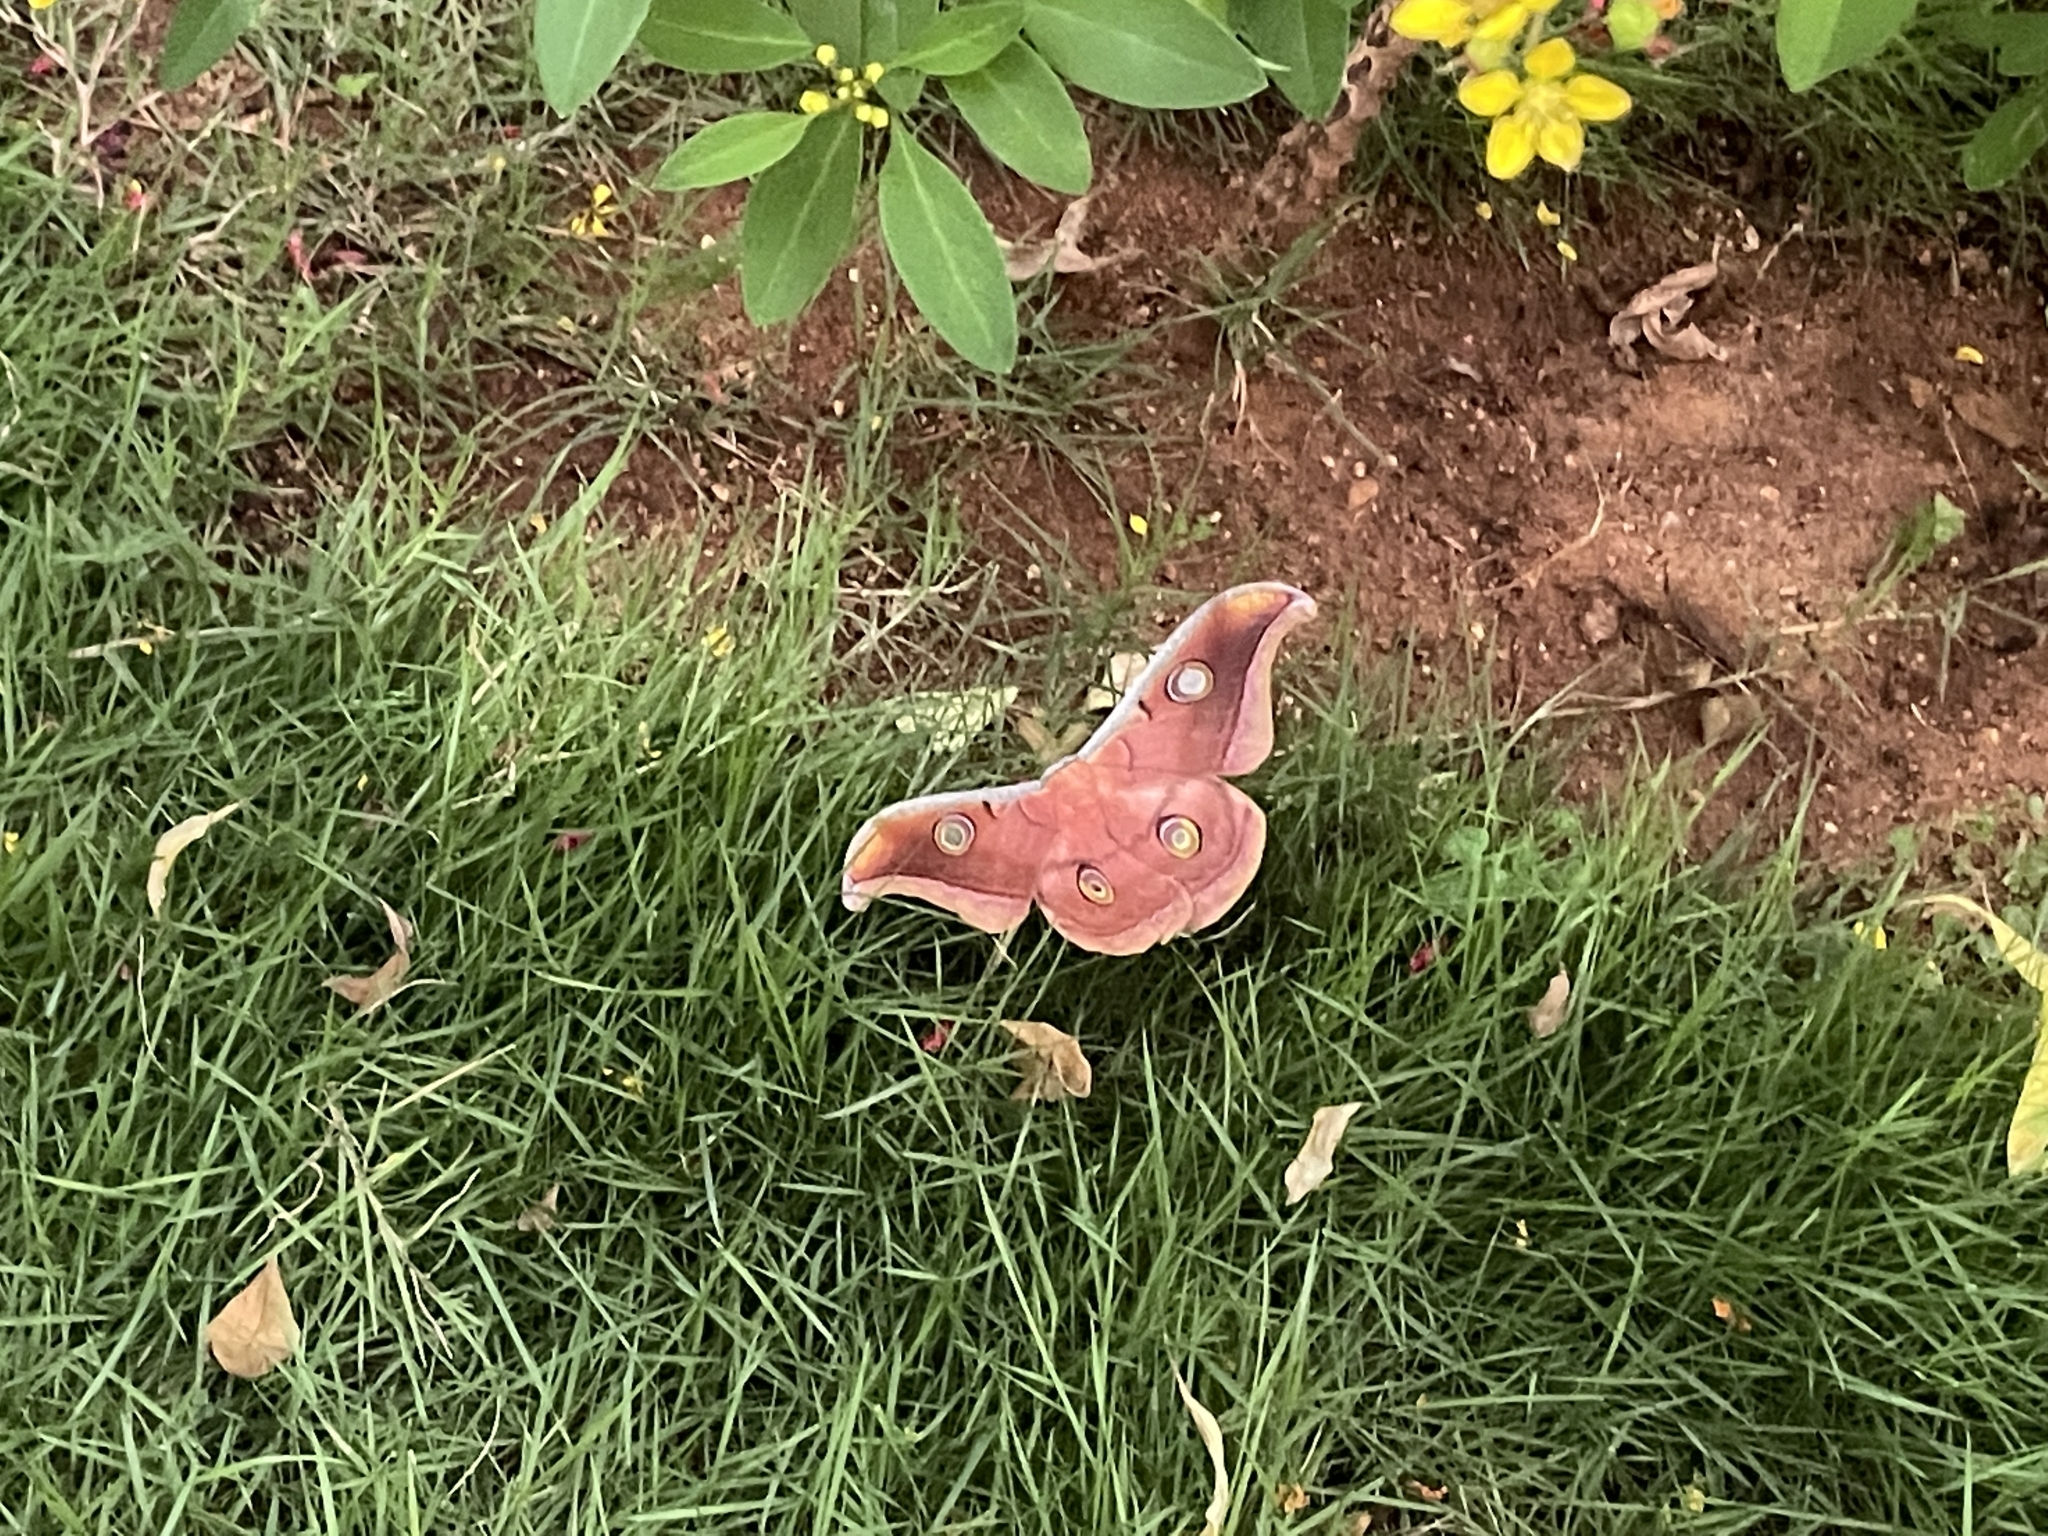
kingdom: Animalia
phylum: Arthropoda
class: Insecta
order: Lepidoptera
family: Saturniidae
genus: Antheraea
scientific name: Antheraea paphia
